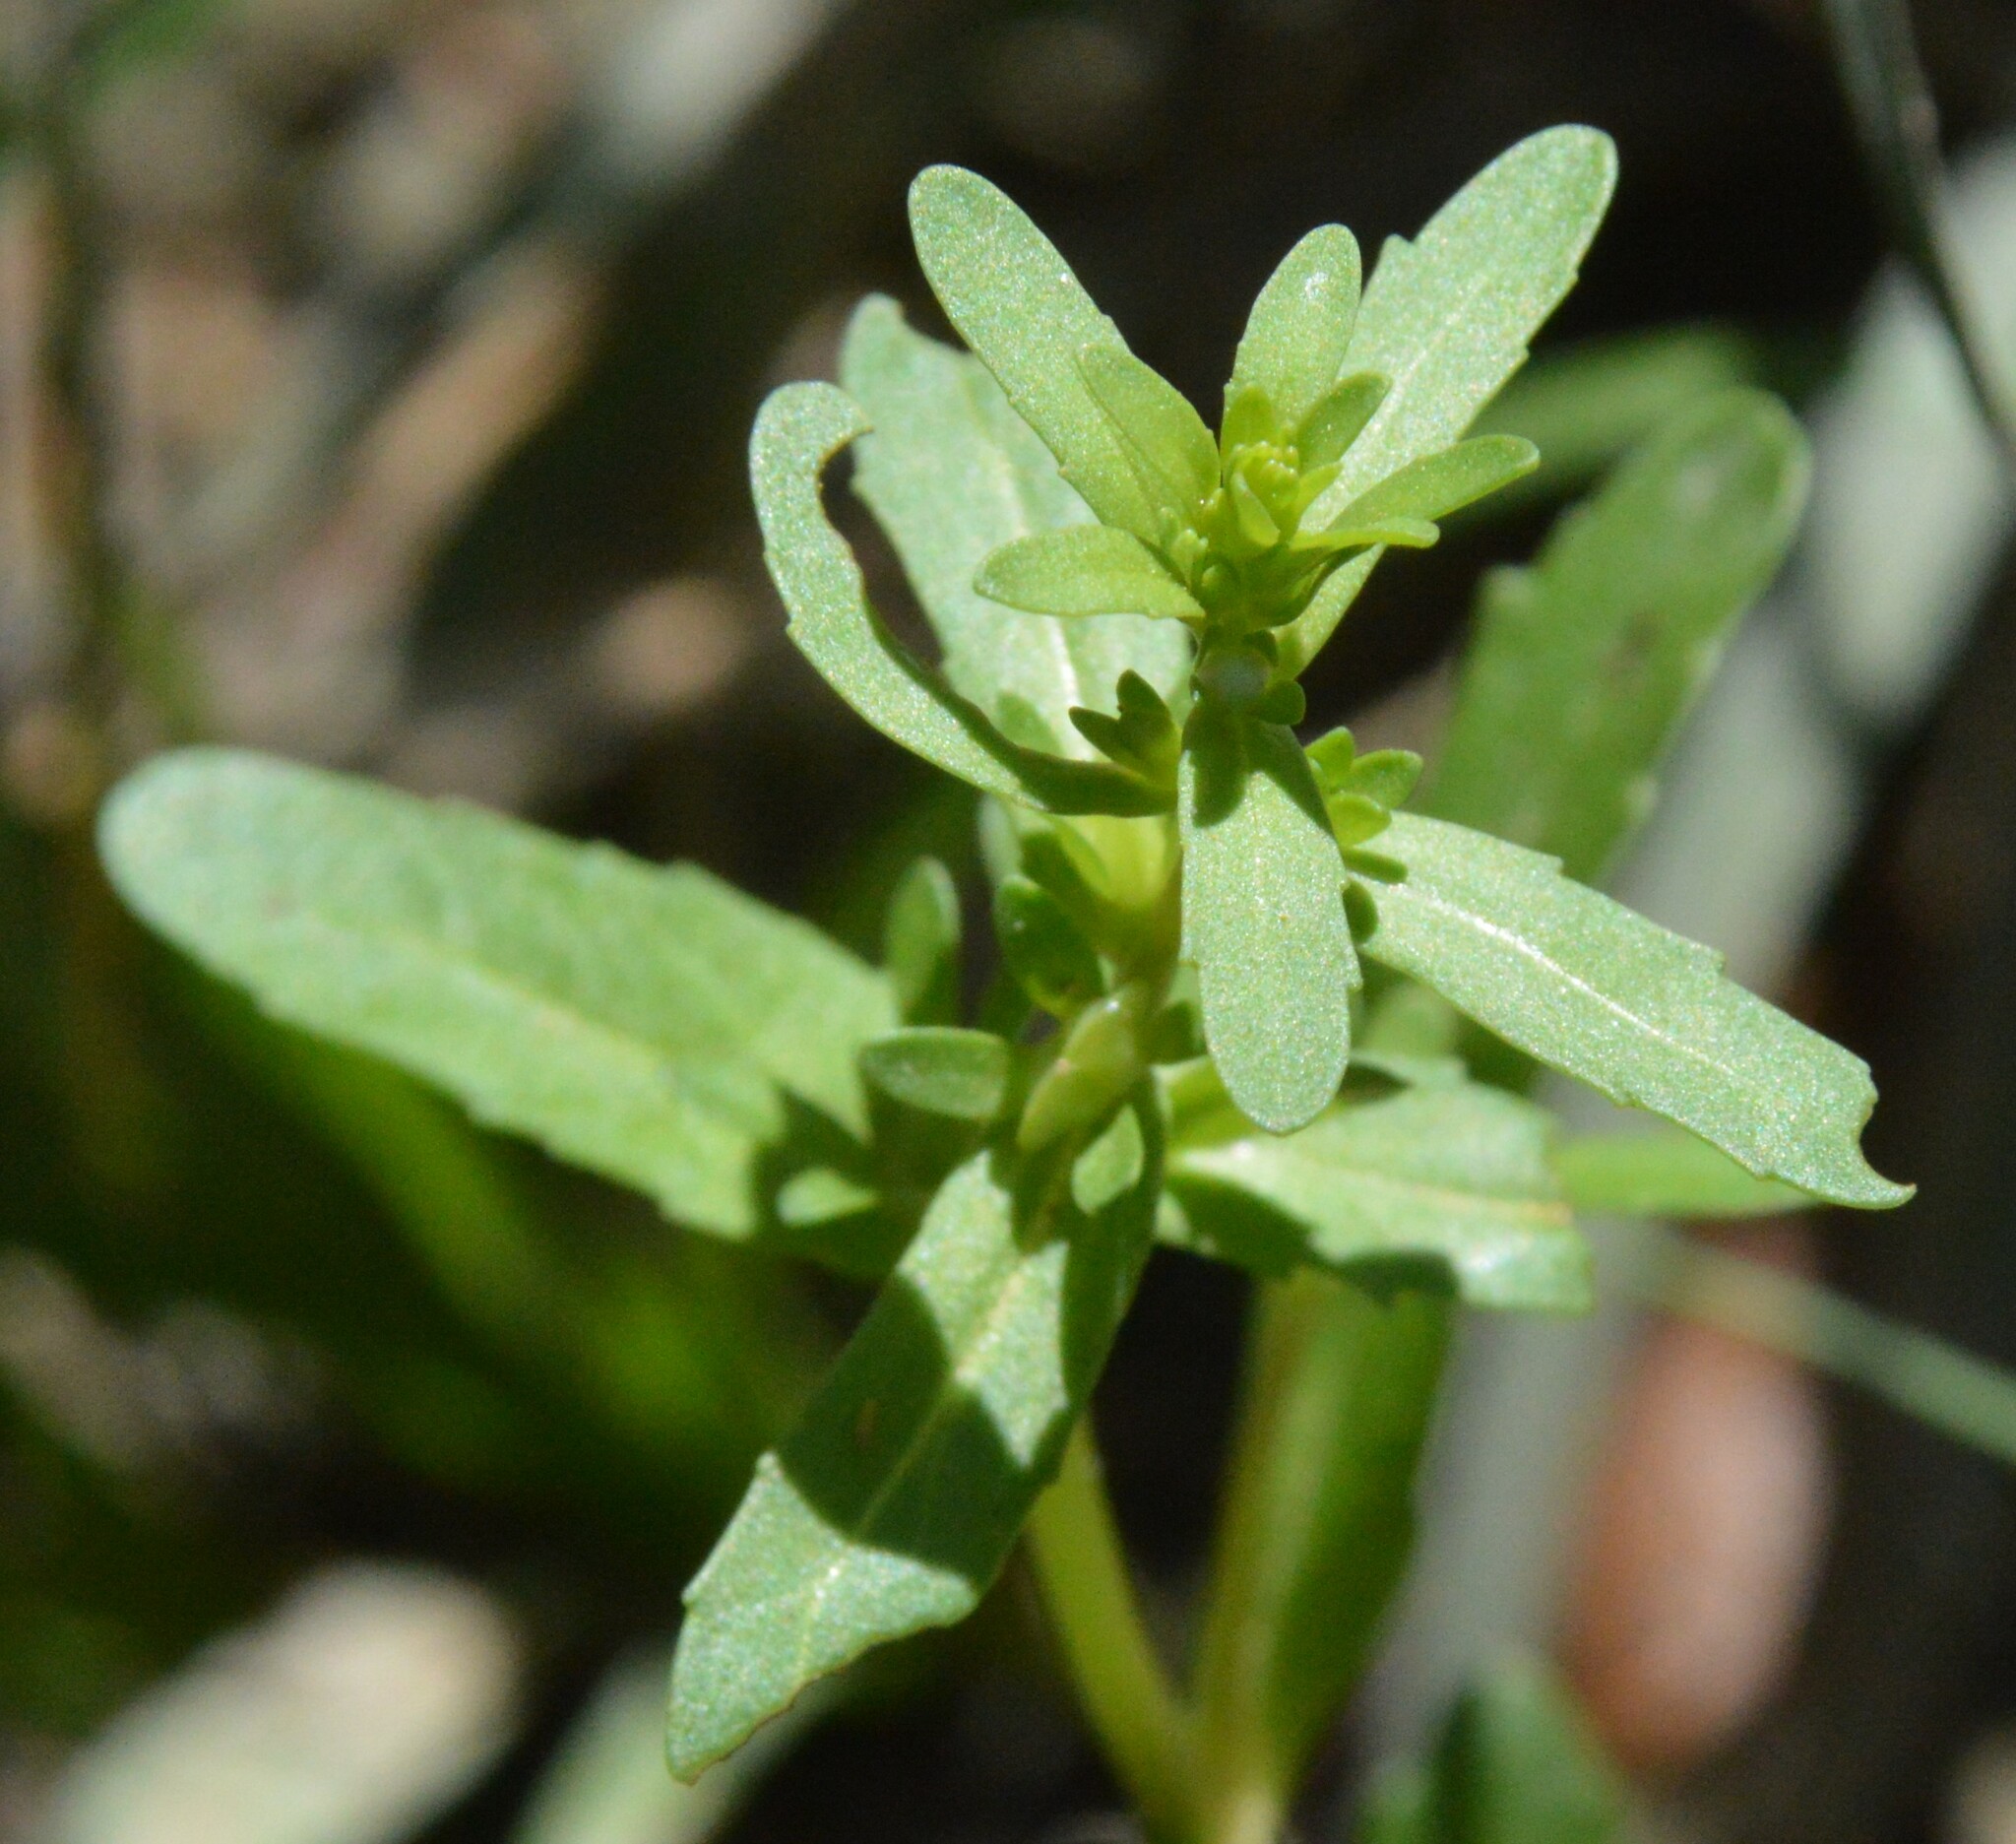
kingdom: Plantae
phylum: Tracheophyta
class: Magnoliopsida
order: Lamiales
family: Plantaginaceae
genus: Veronica
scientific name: Veronica peregrina
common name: Neckweed
